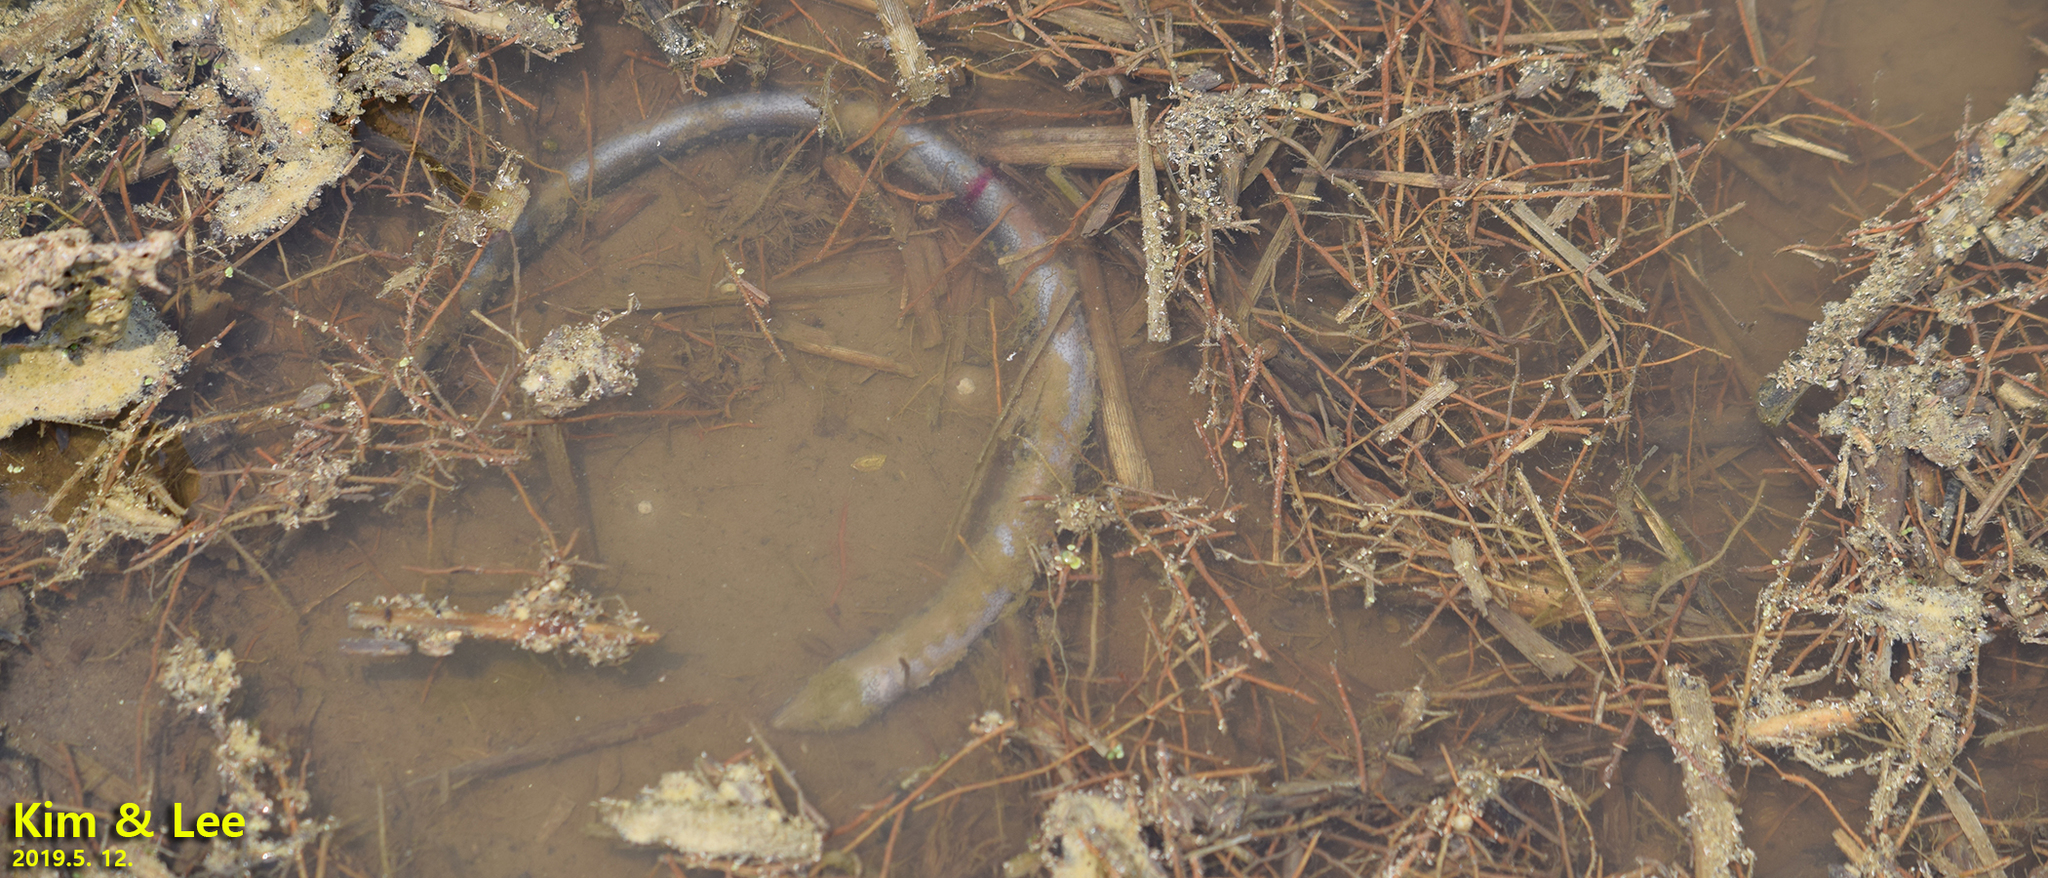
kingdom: Animalia
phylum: Chordata
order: Synbranchiformes
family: Synbranchidae
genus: Monopterus
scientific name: Monopterus albus
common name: Asian swamp eel
